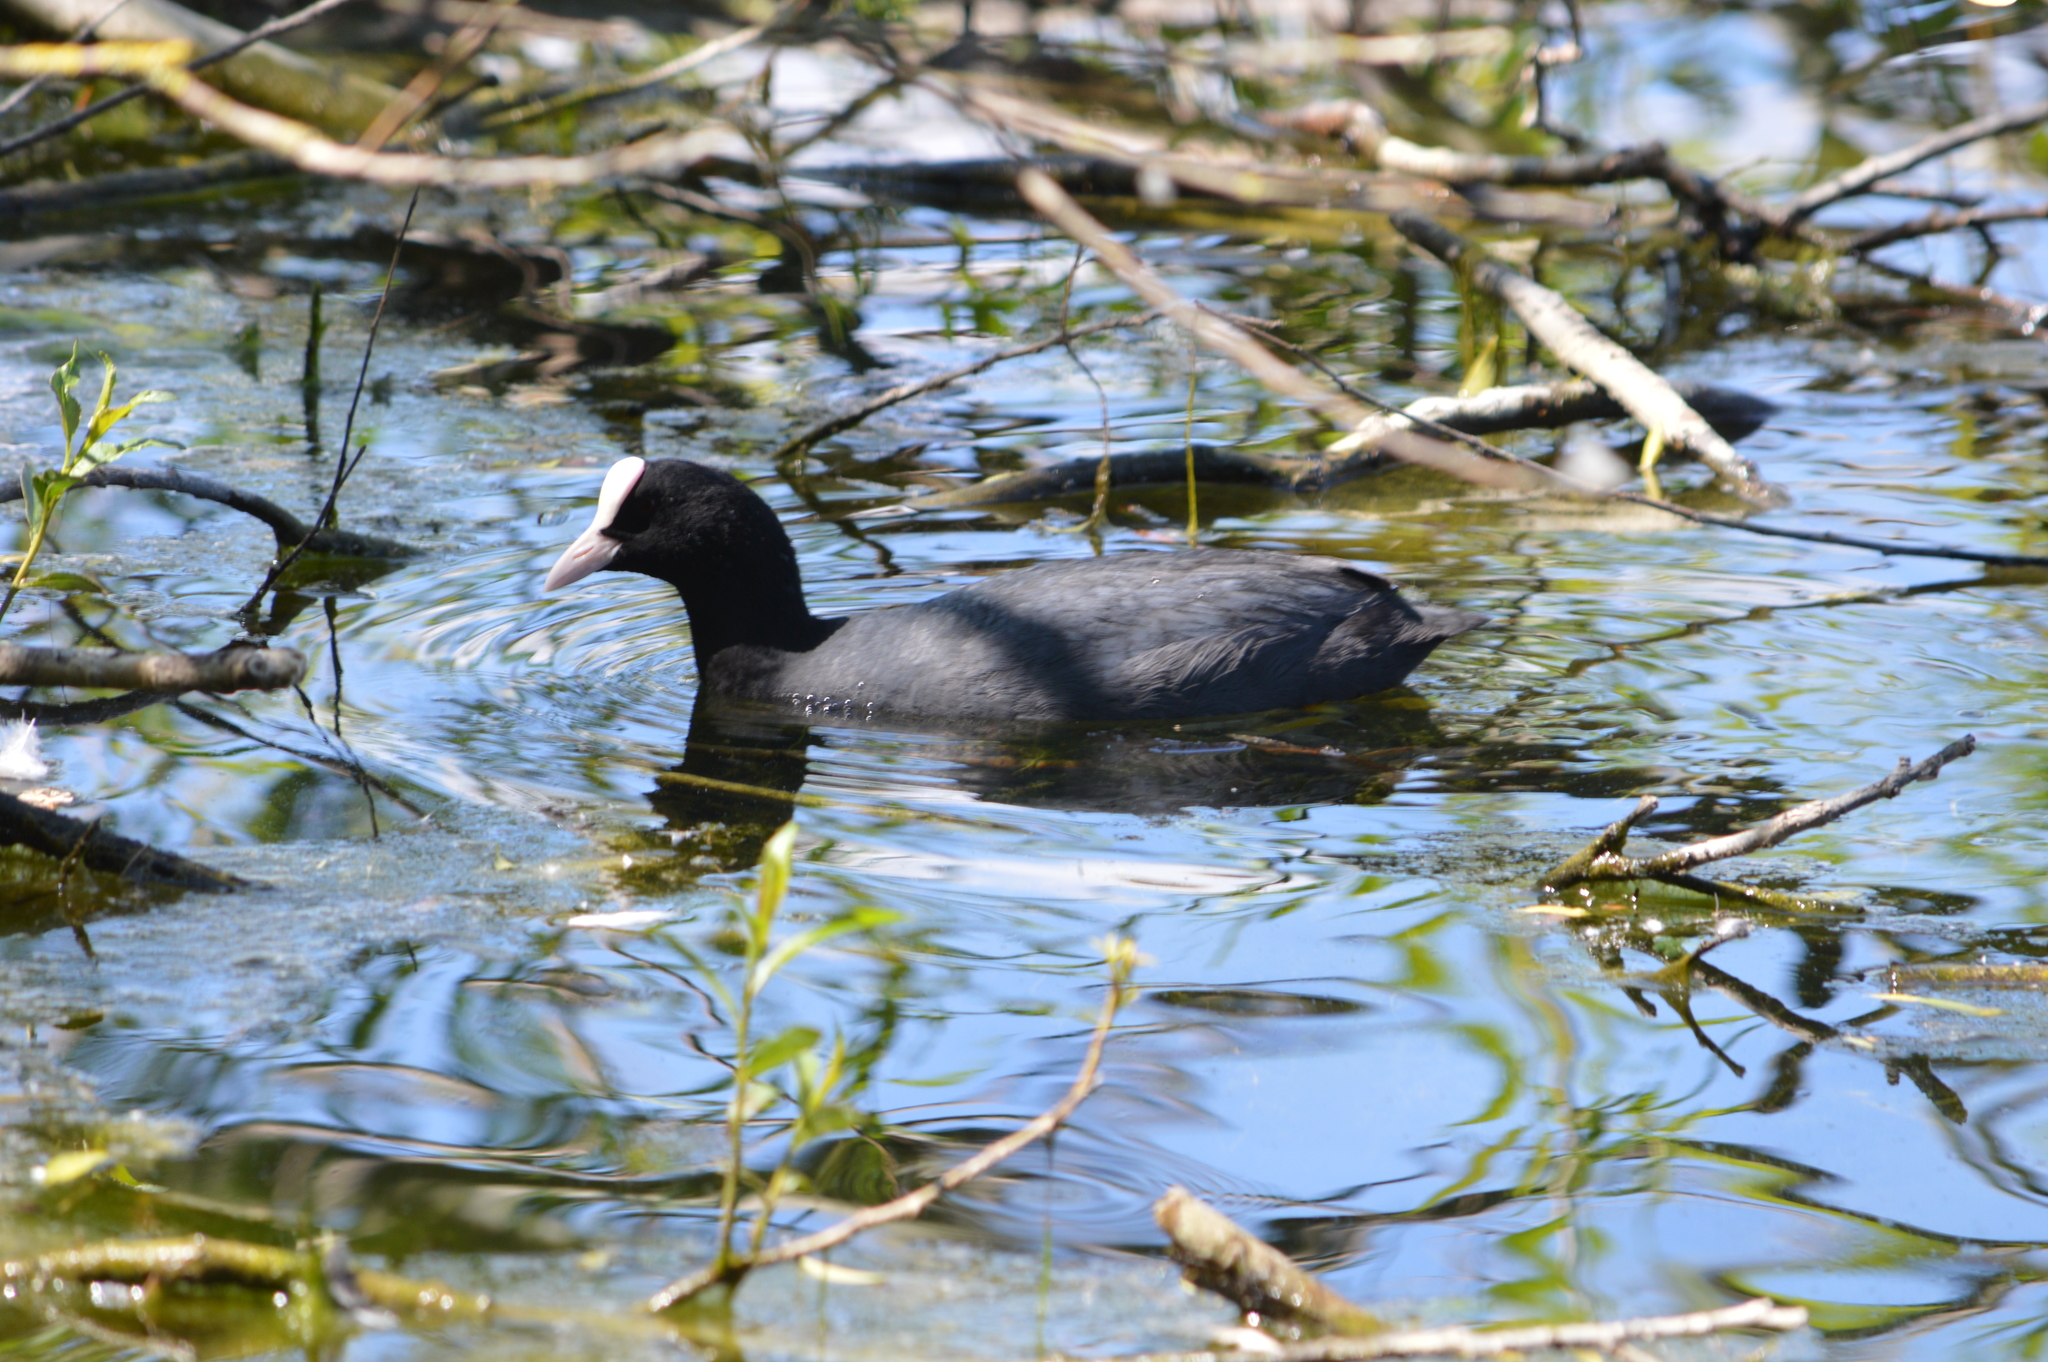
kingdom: Animalia
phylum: Chordata
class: Aves
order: Gruiformes
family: Rallidae
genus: Fulica
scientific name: Fulica atra
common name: Eurasian coot
